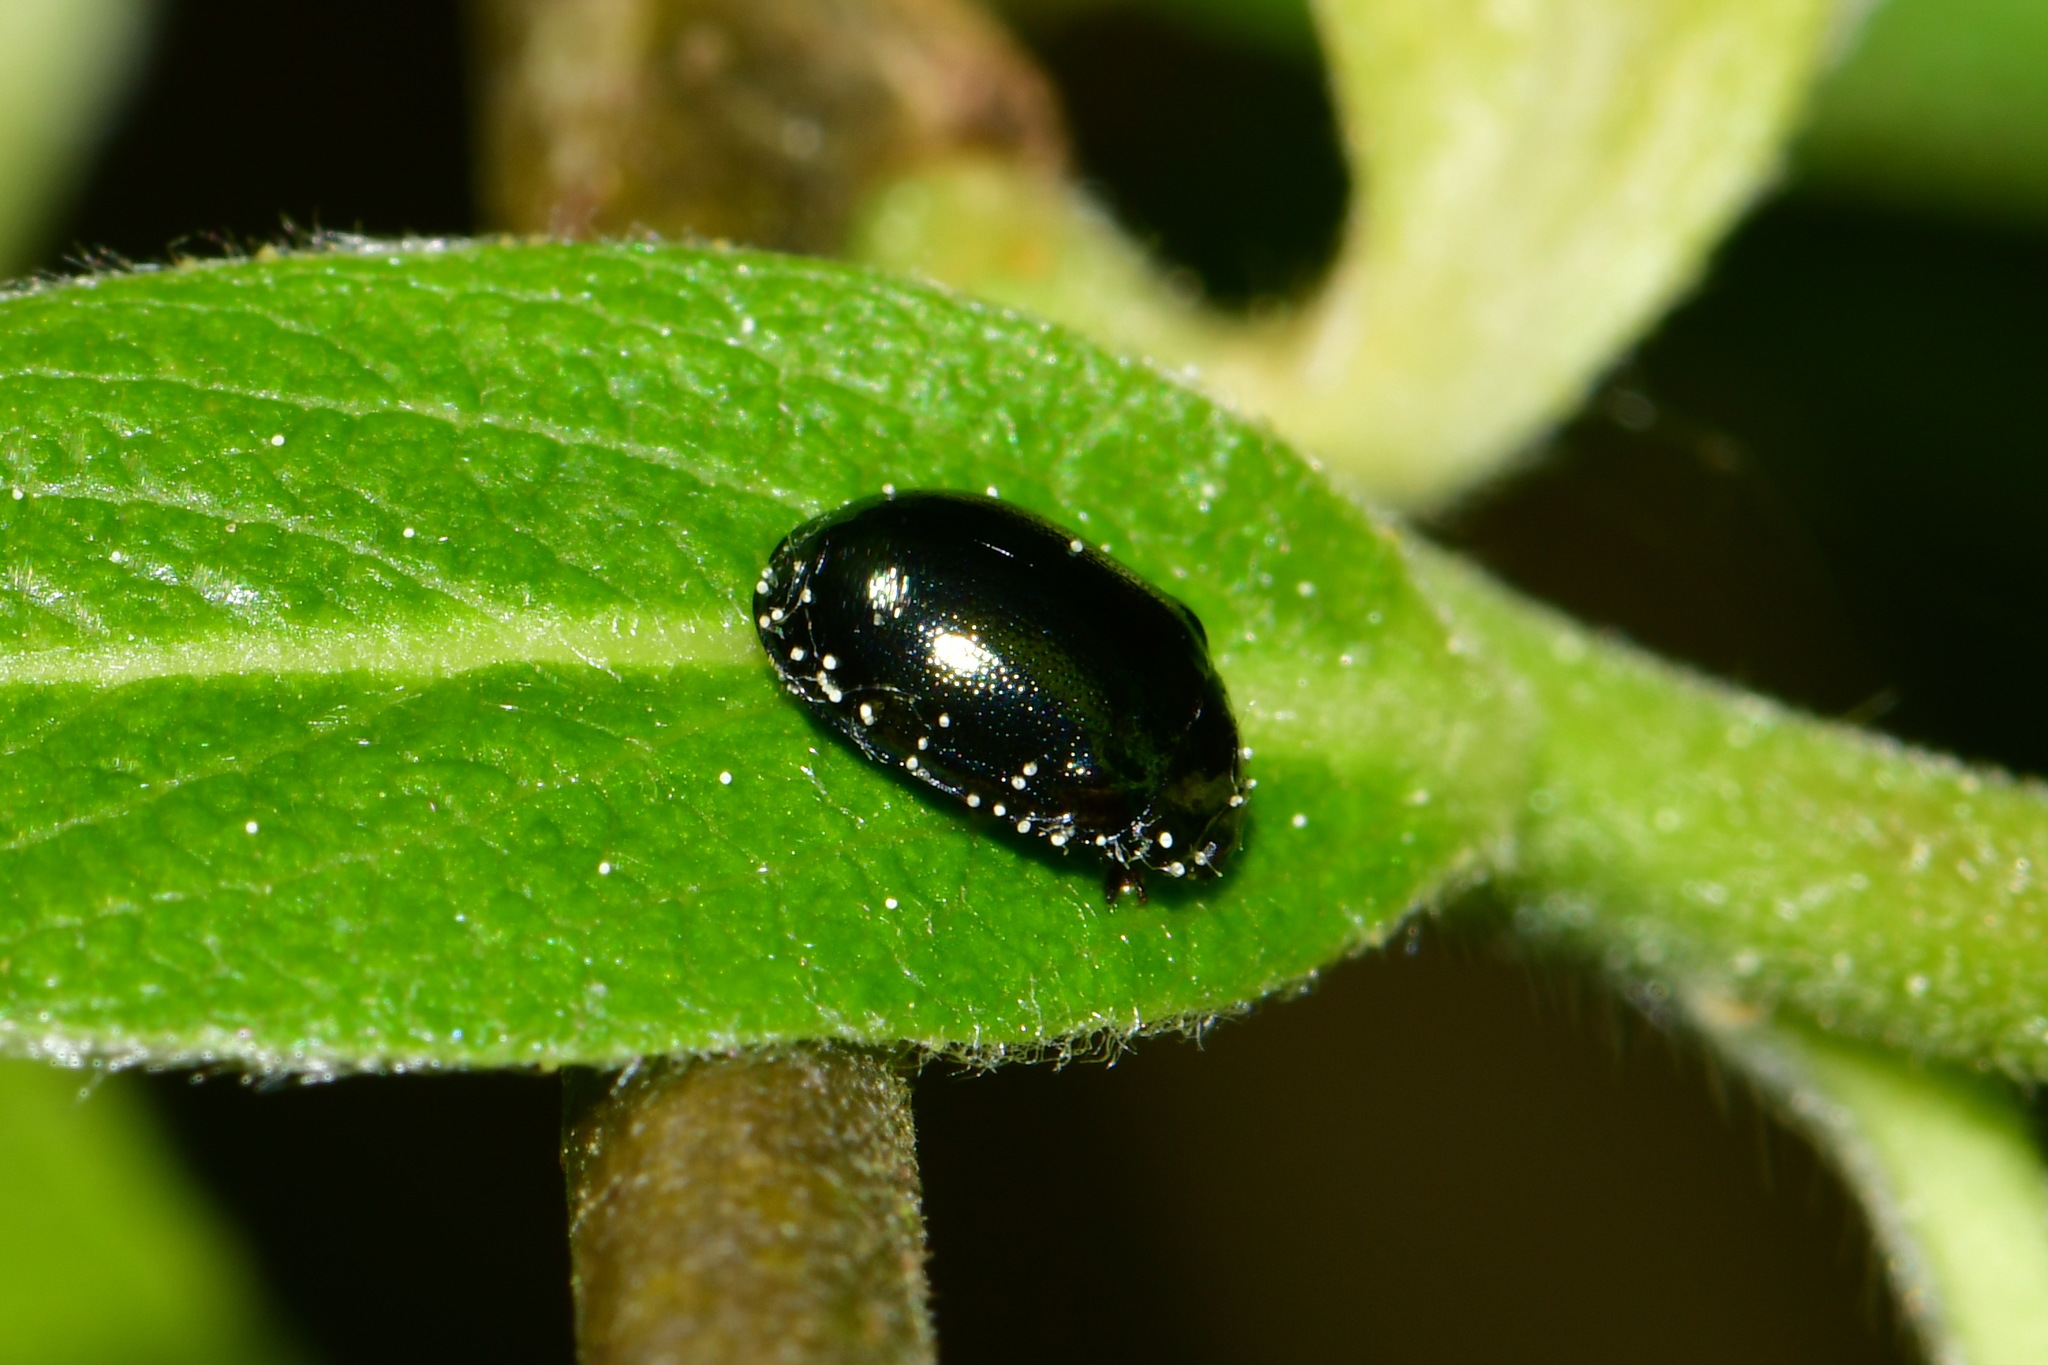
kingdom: Animalia
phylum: Arthropoda
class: Insecta
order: Coleoptera
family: Chrysomelidae
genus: Plagiodera
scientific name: Plagiodera versicolora
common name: Imported willow leaf beetle
